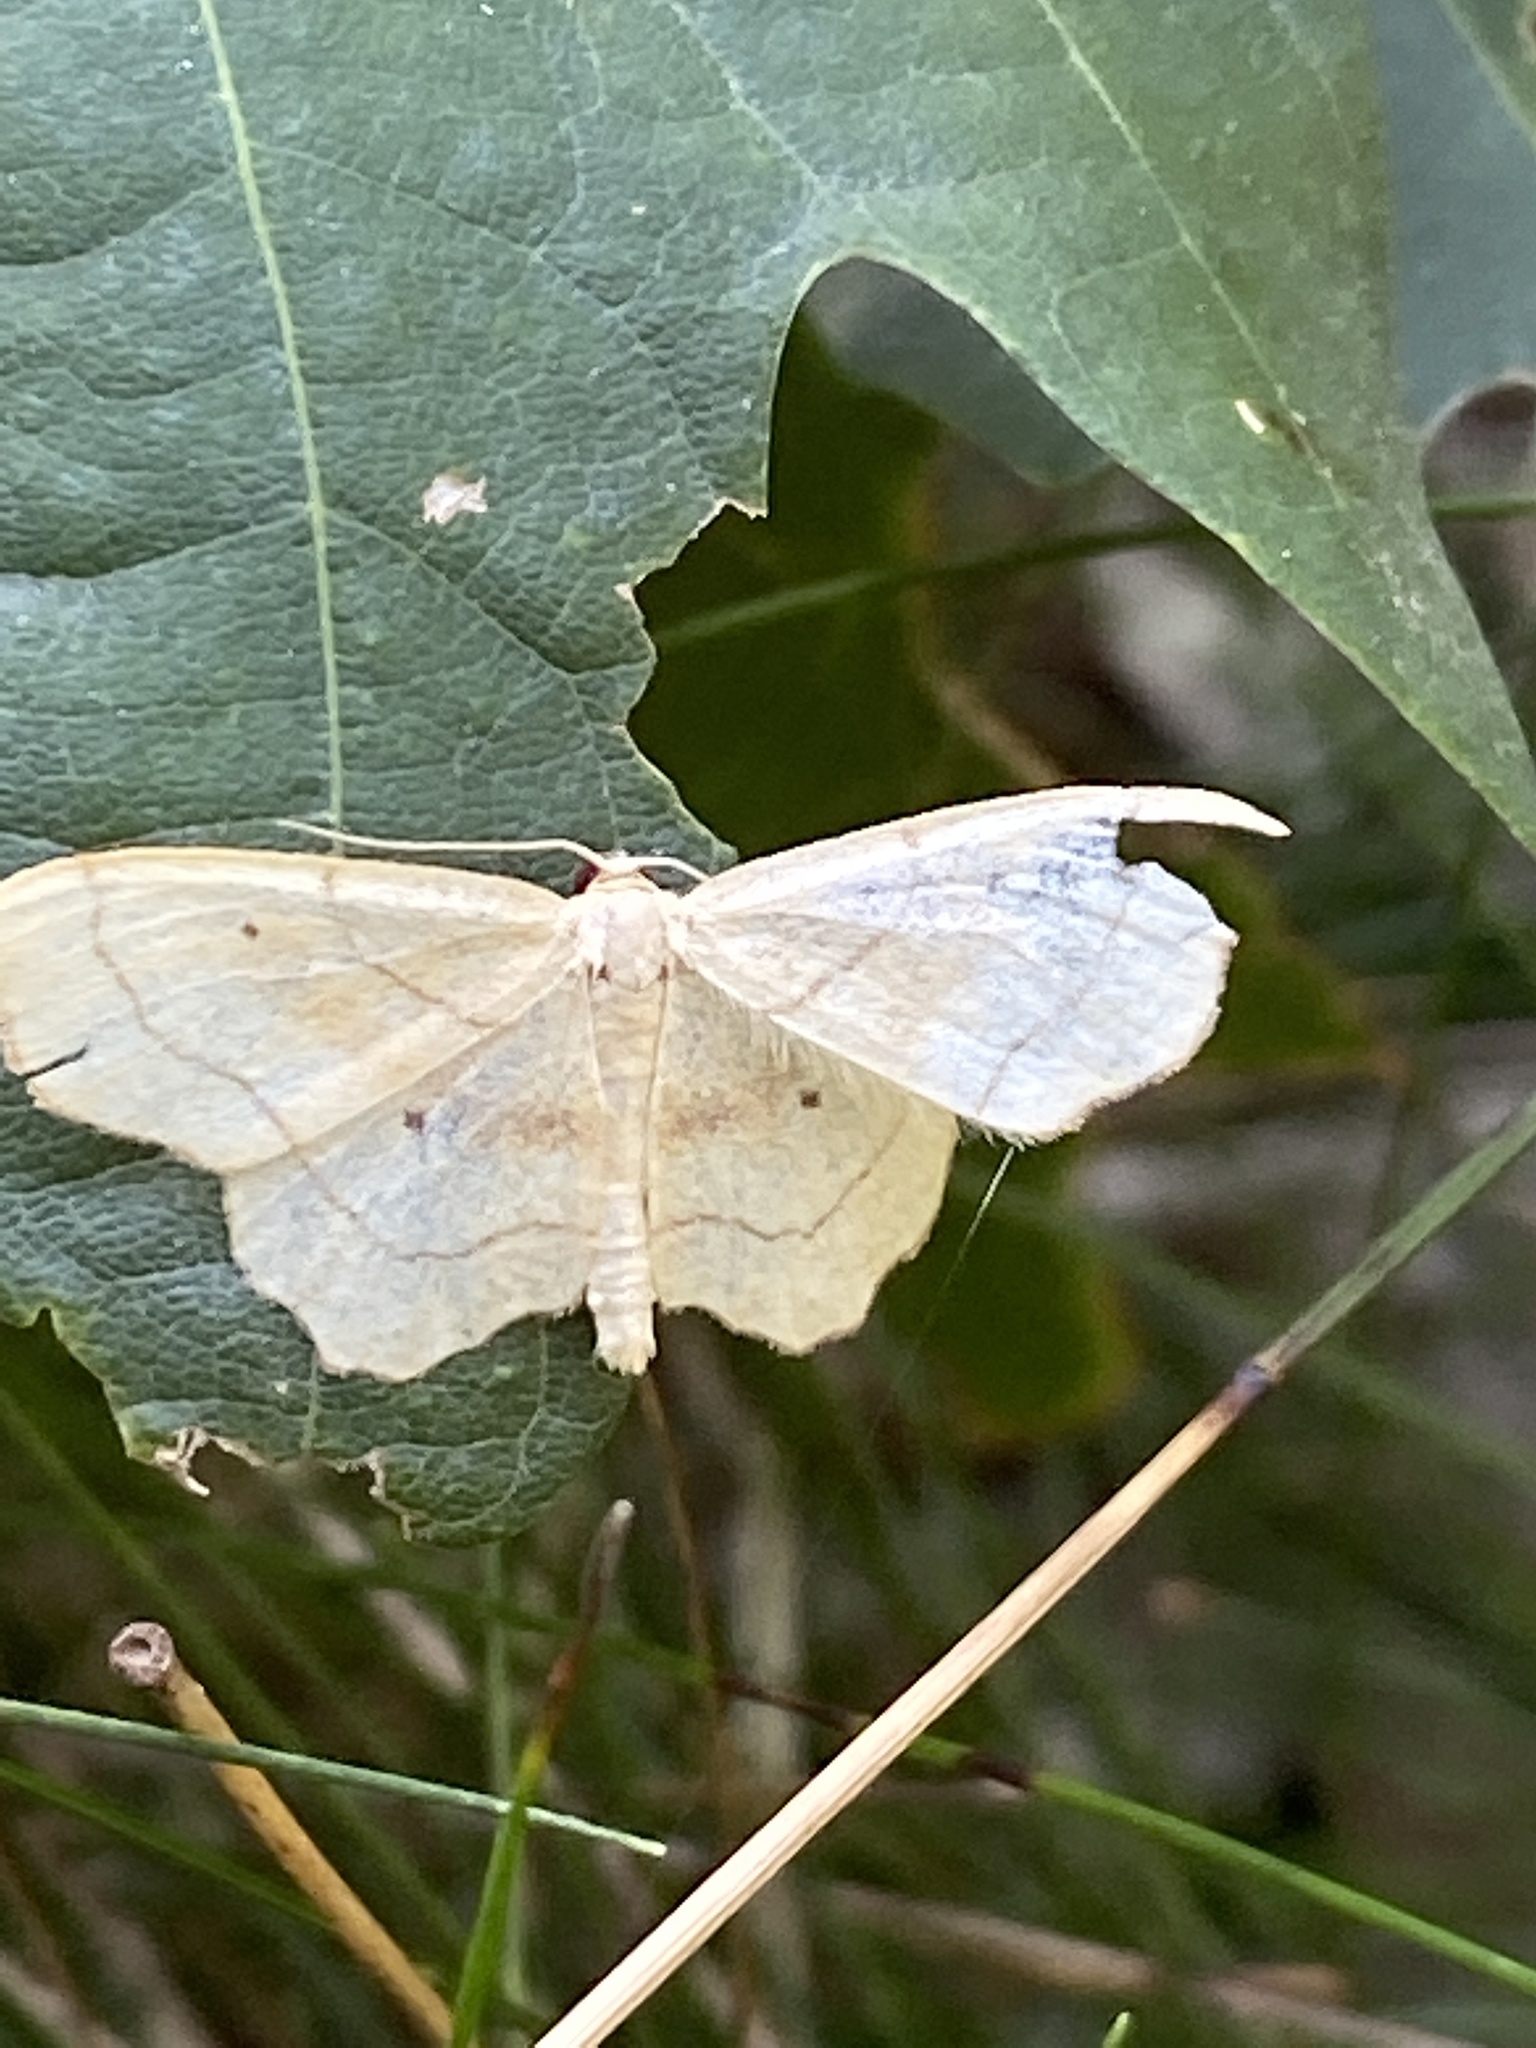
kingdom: Animalia
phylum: Arthropoda
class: Insecta
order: Lepidoptera
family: Geometridae
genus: Idaea
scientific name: Idaea emarginata
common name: Small scallop
